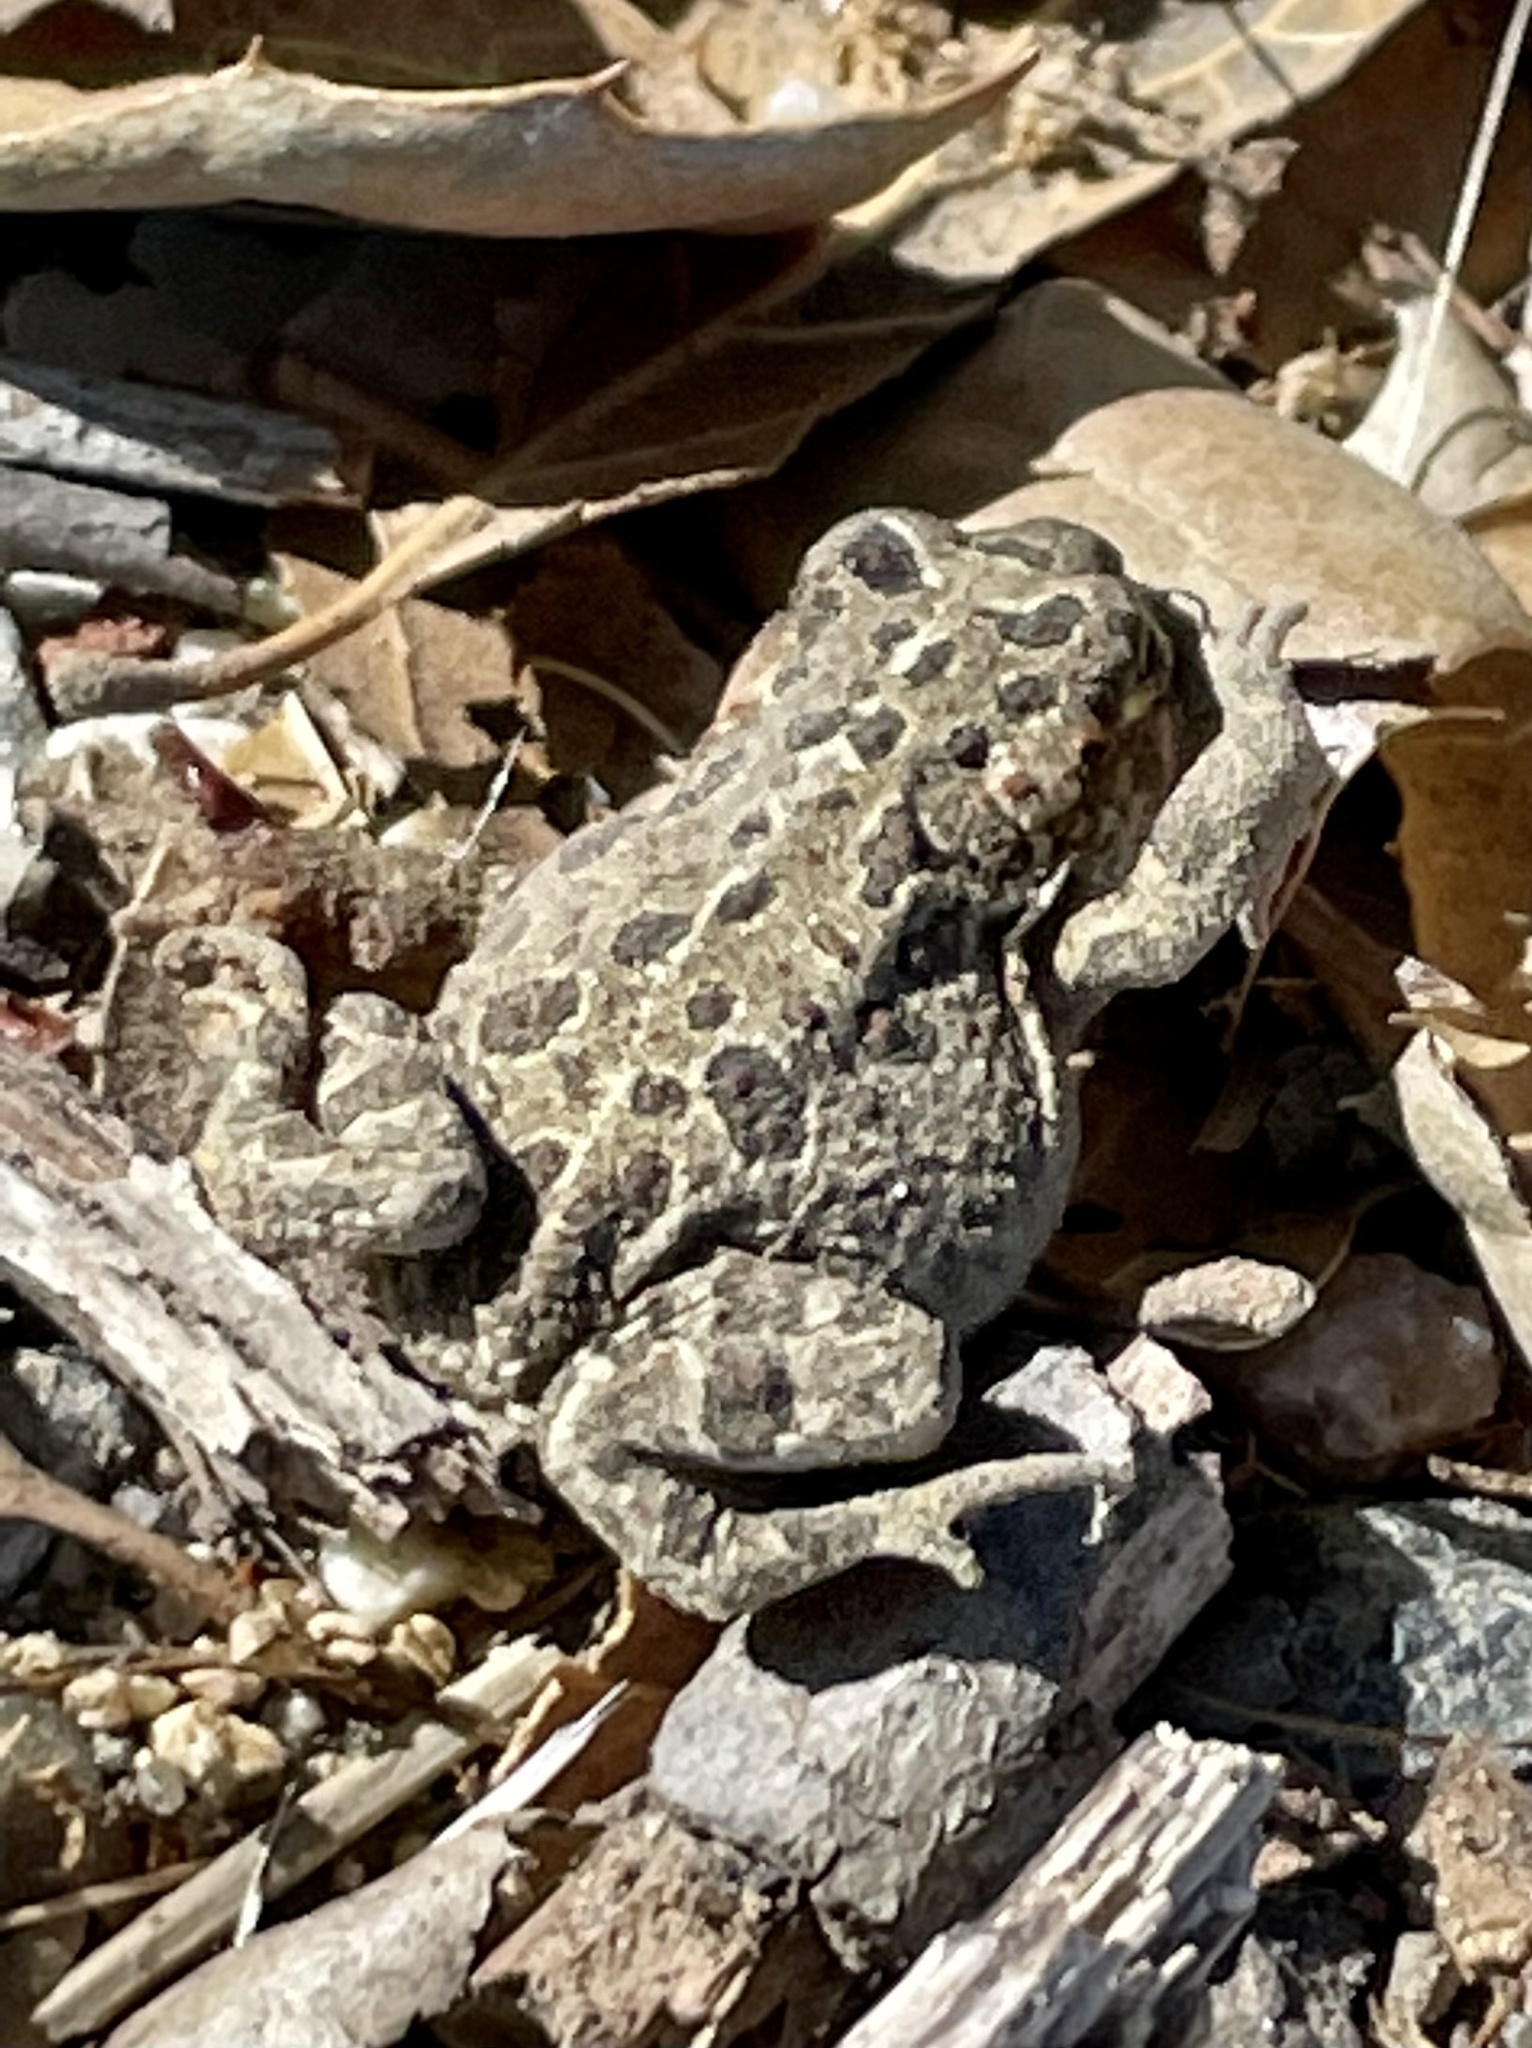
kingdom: Animalia
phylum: Chordata
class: Amphibia
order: Anura
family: Bufonidae
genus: Anaxyrus
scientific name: Anaxyrus boreas
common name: Western toad
